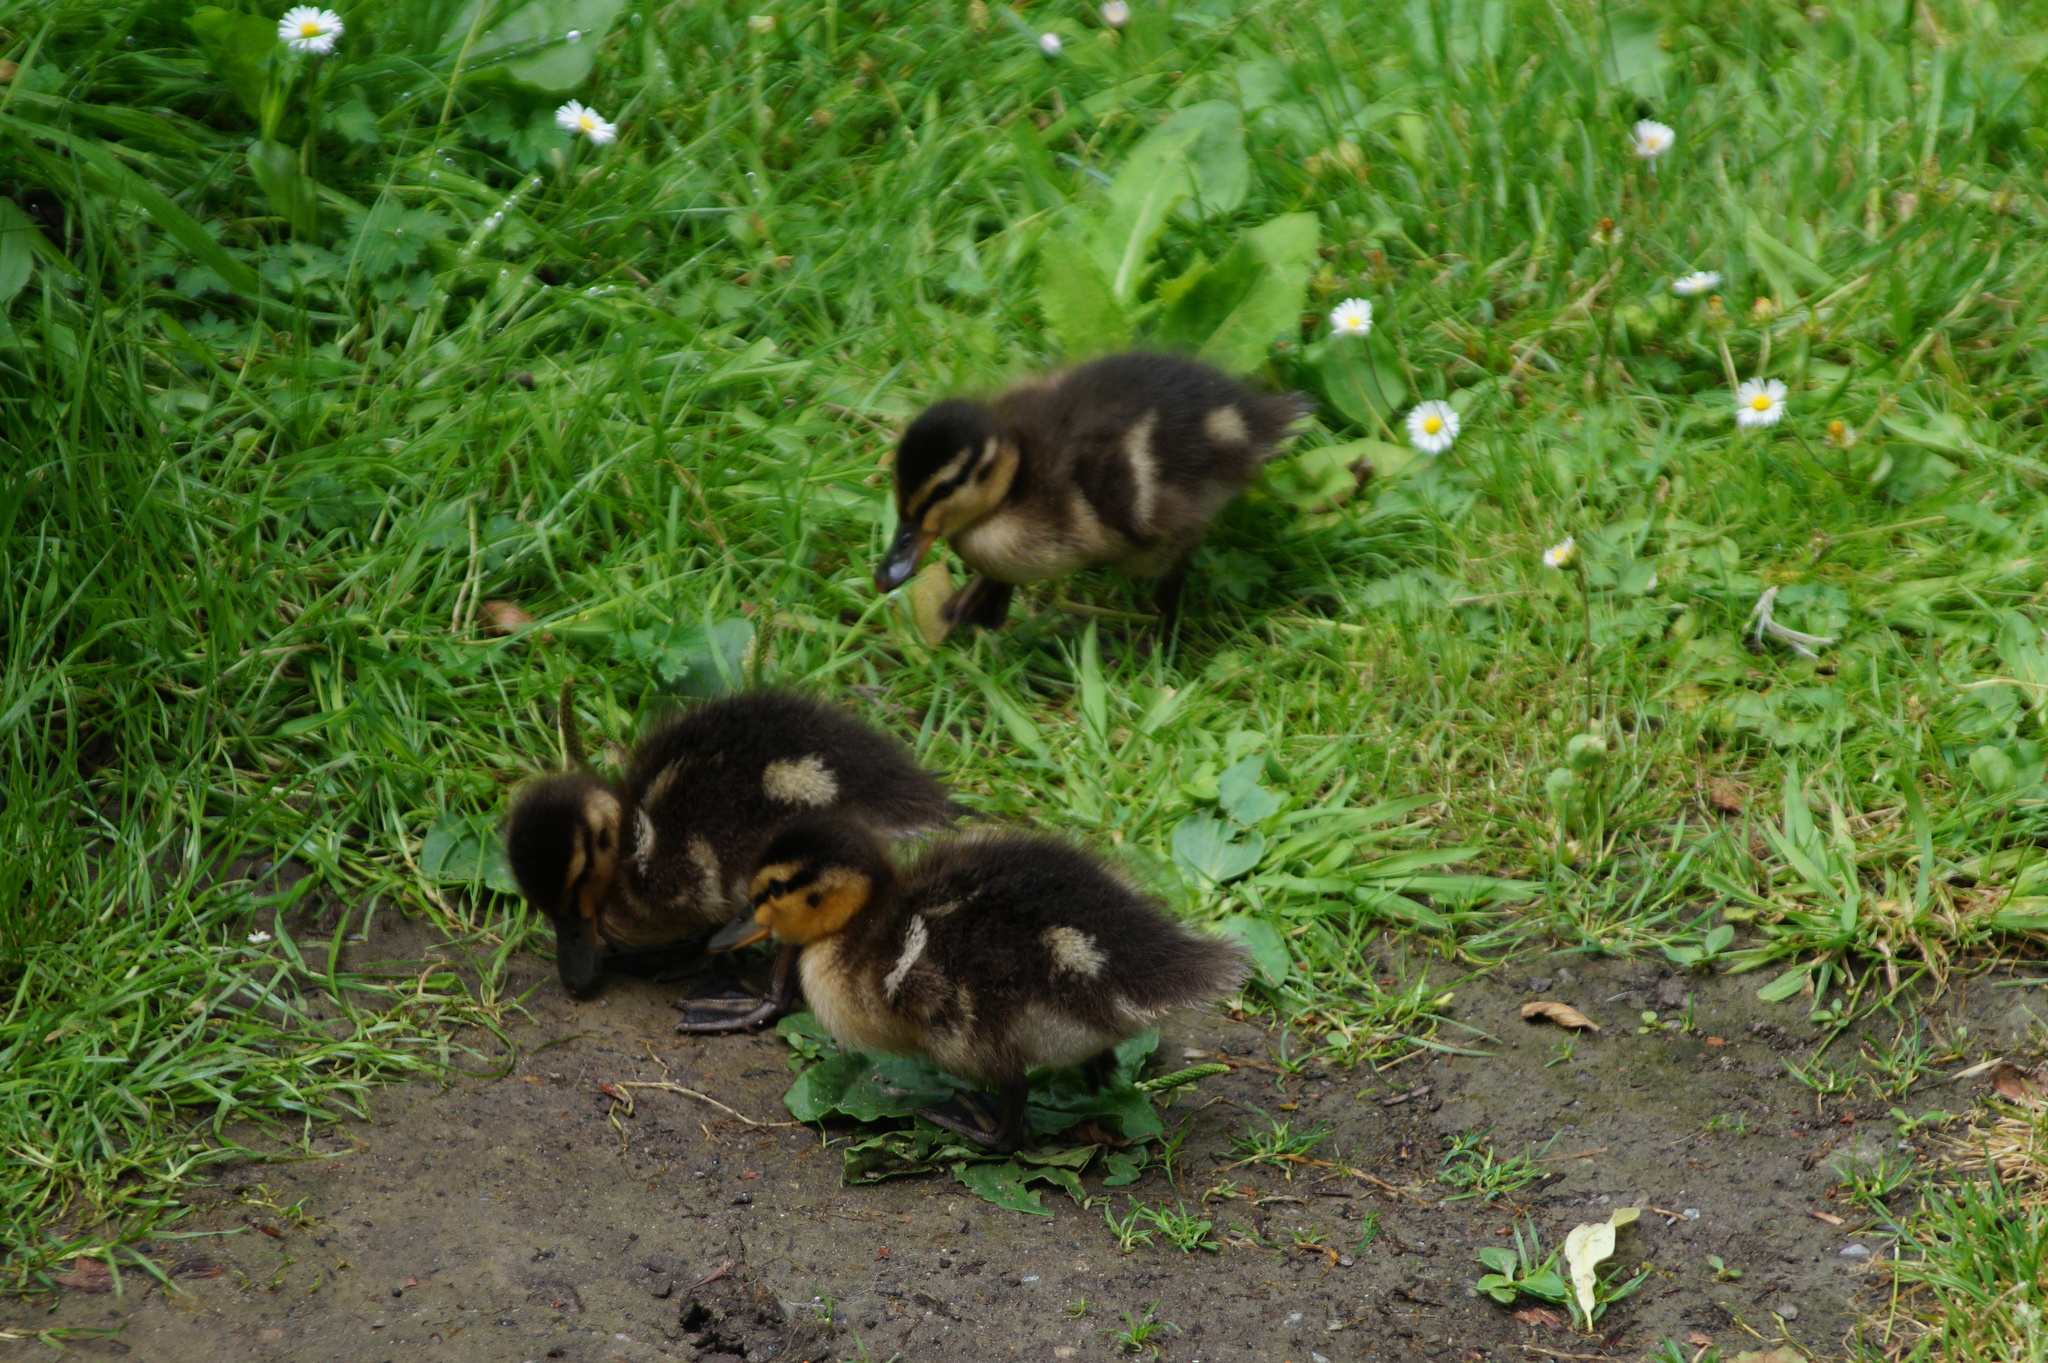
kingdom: Animalia
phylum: Chordata
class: Aves
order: Anseriformes
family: Anatidae
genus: Anas
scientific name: Anas platyrhynchos
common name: Mallard
